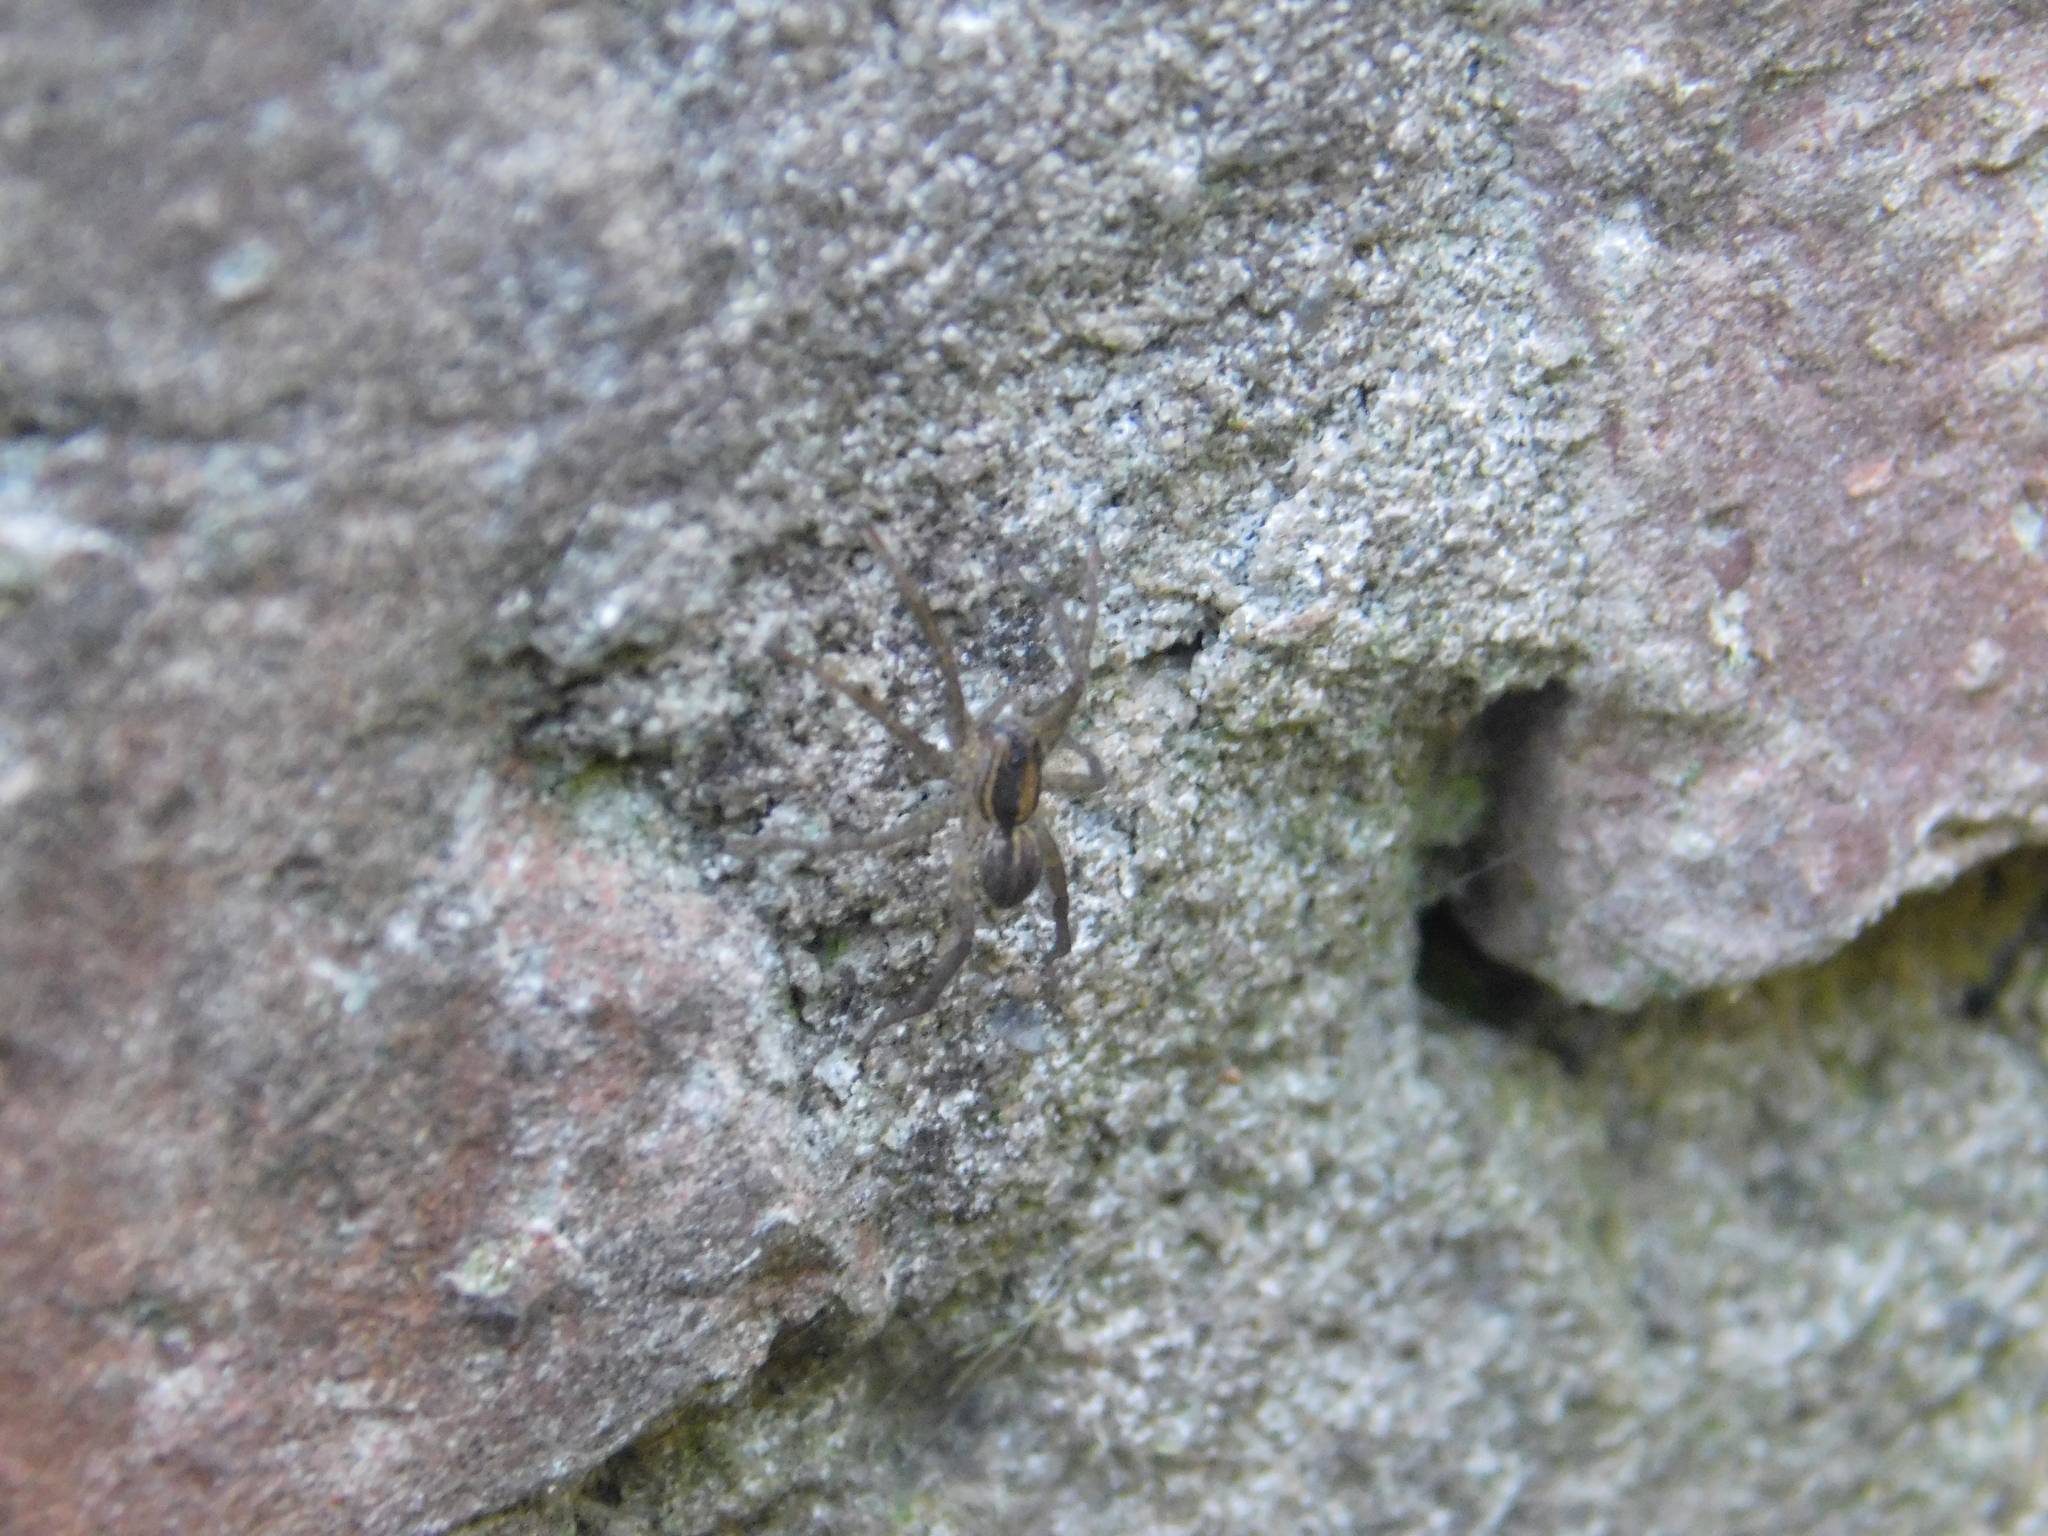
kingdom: Animalia
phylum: Arthropoda
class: Arachnida
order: Araneae
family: Lycosidae
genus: Alopecosa
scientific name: Alopecosa moesta
